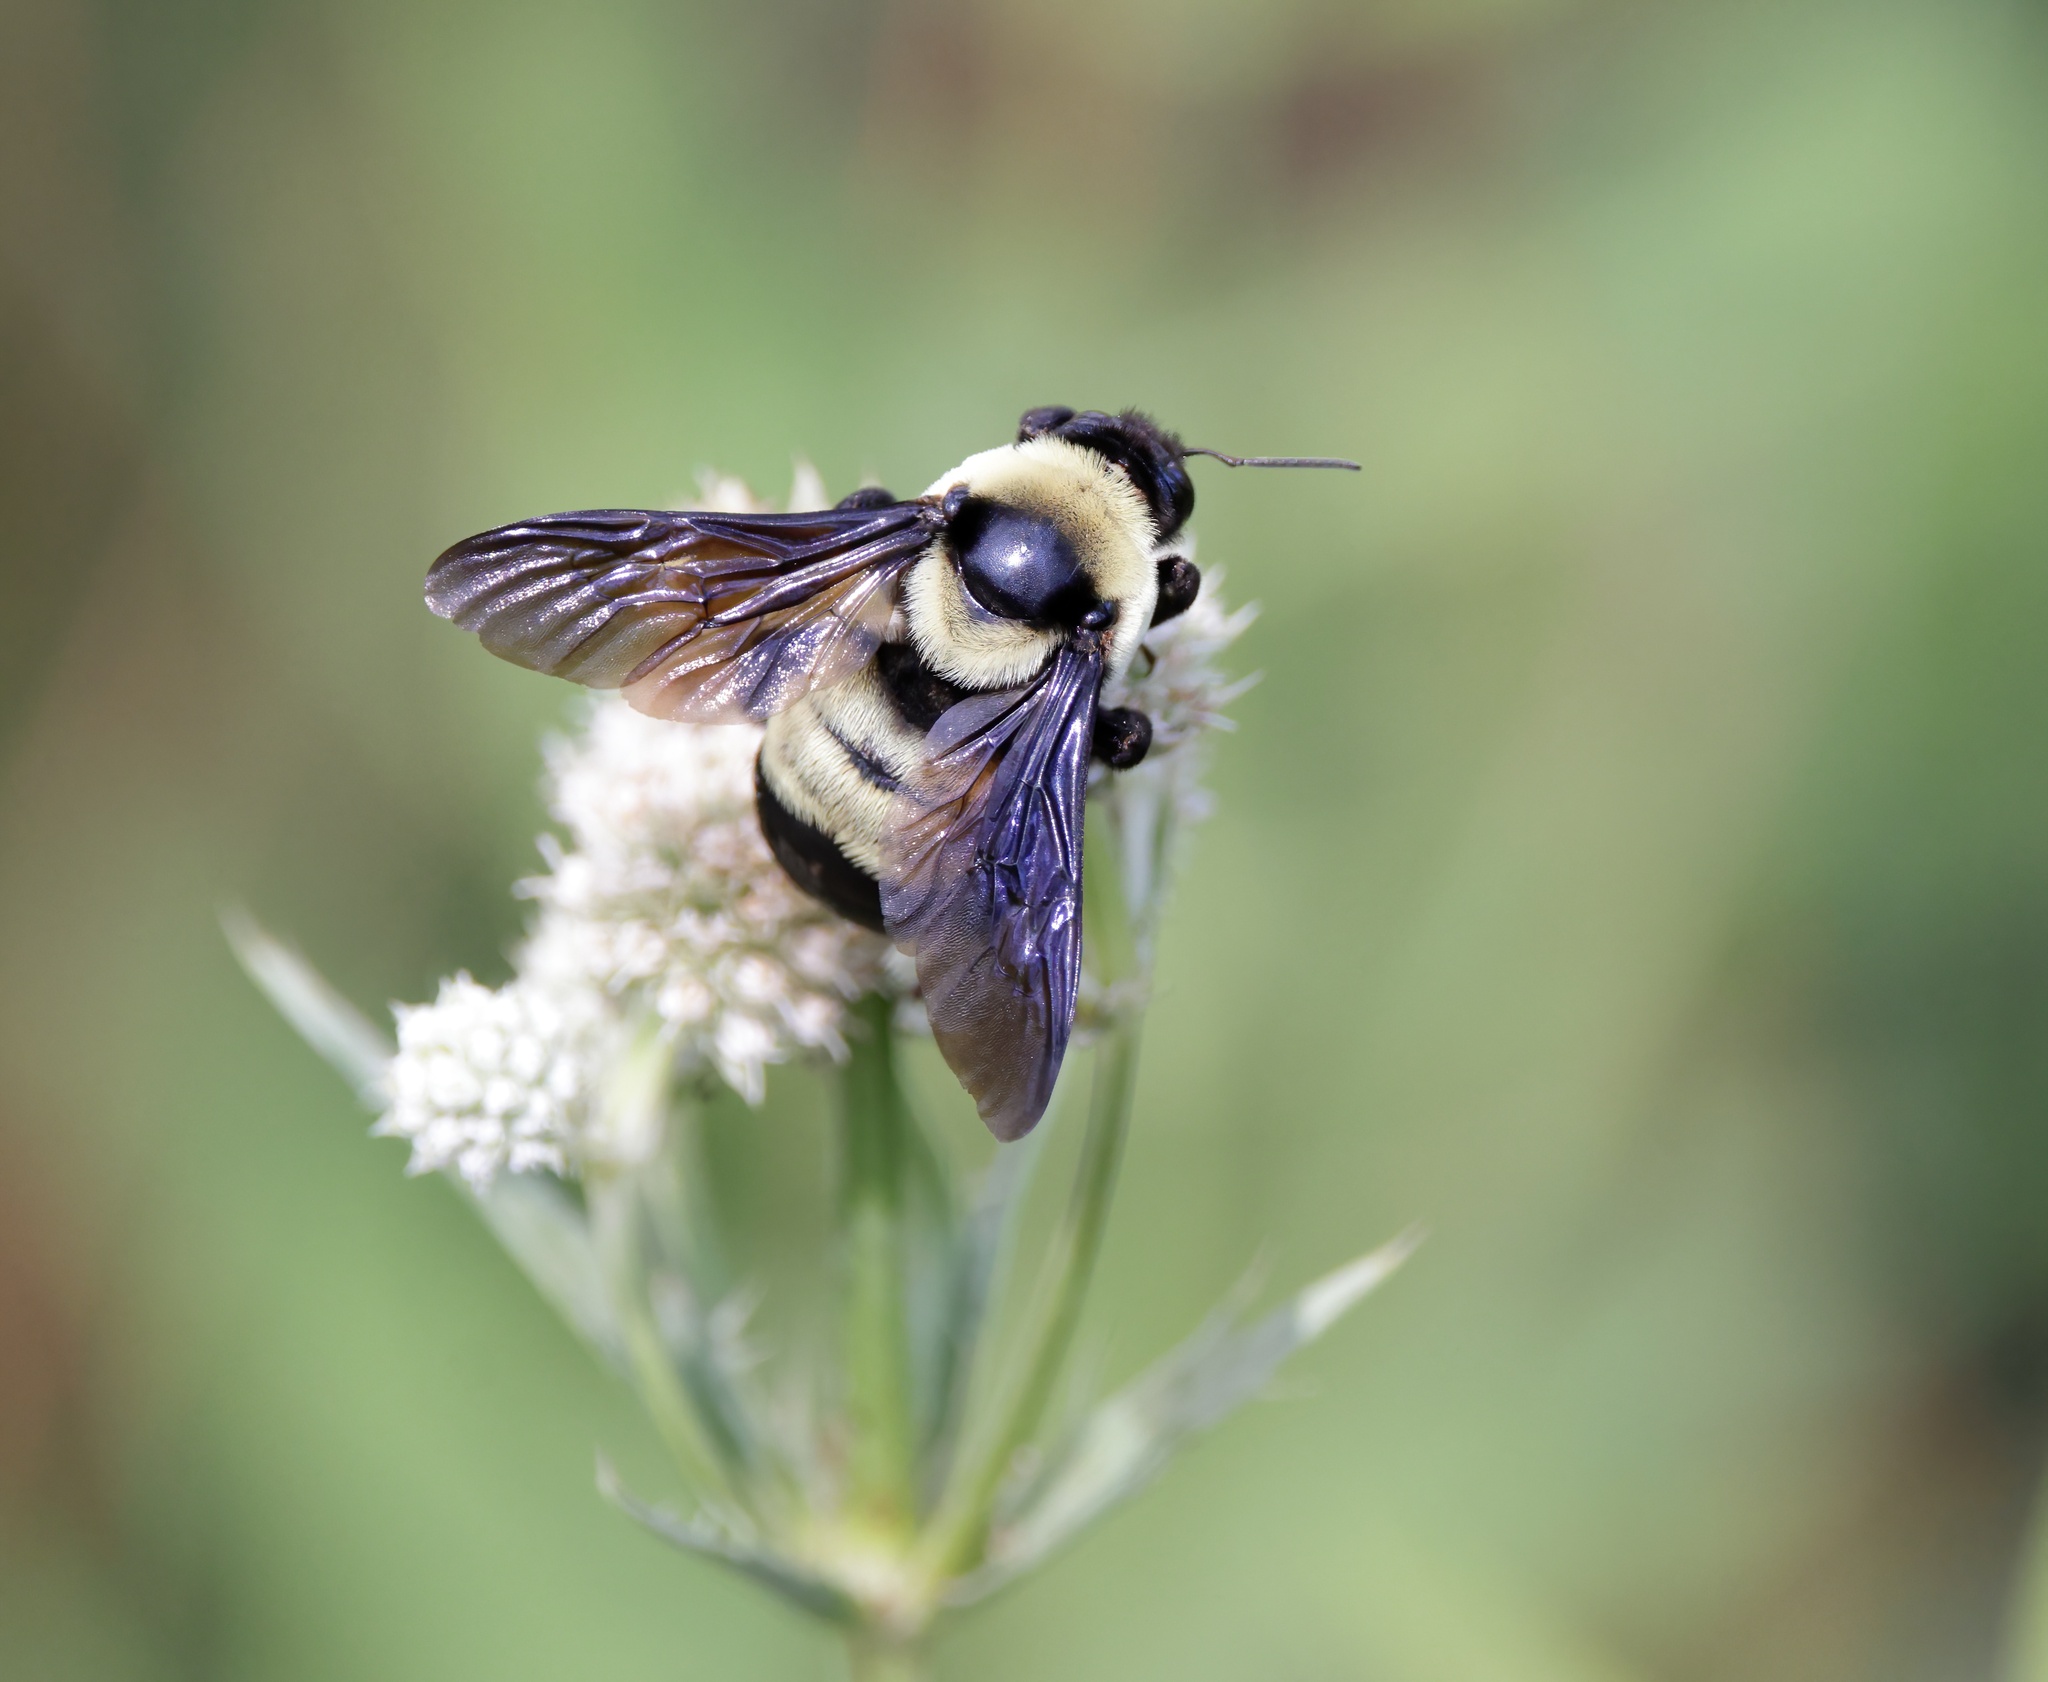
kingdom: Animalia
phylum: Arthropoda
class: Insecta
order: Hymenoptera
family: Apidae
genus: Bombus
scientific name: Bombus fraternus
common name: Southern plains bumble bee
